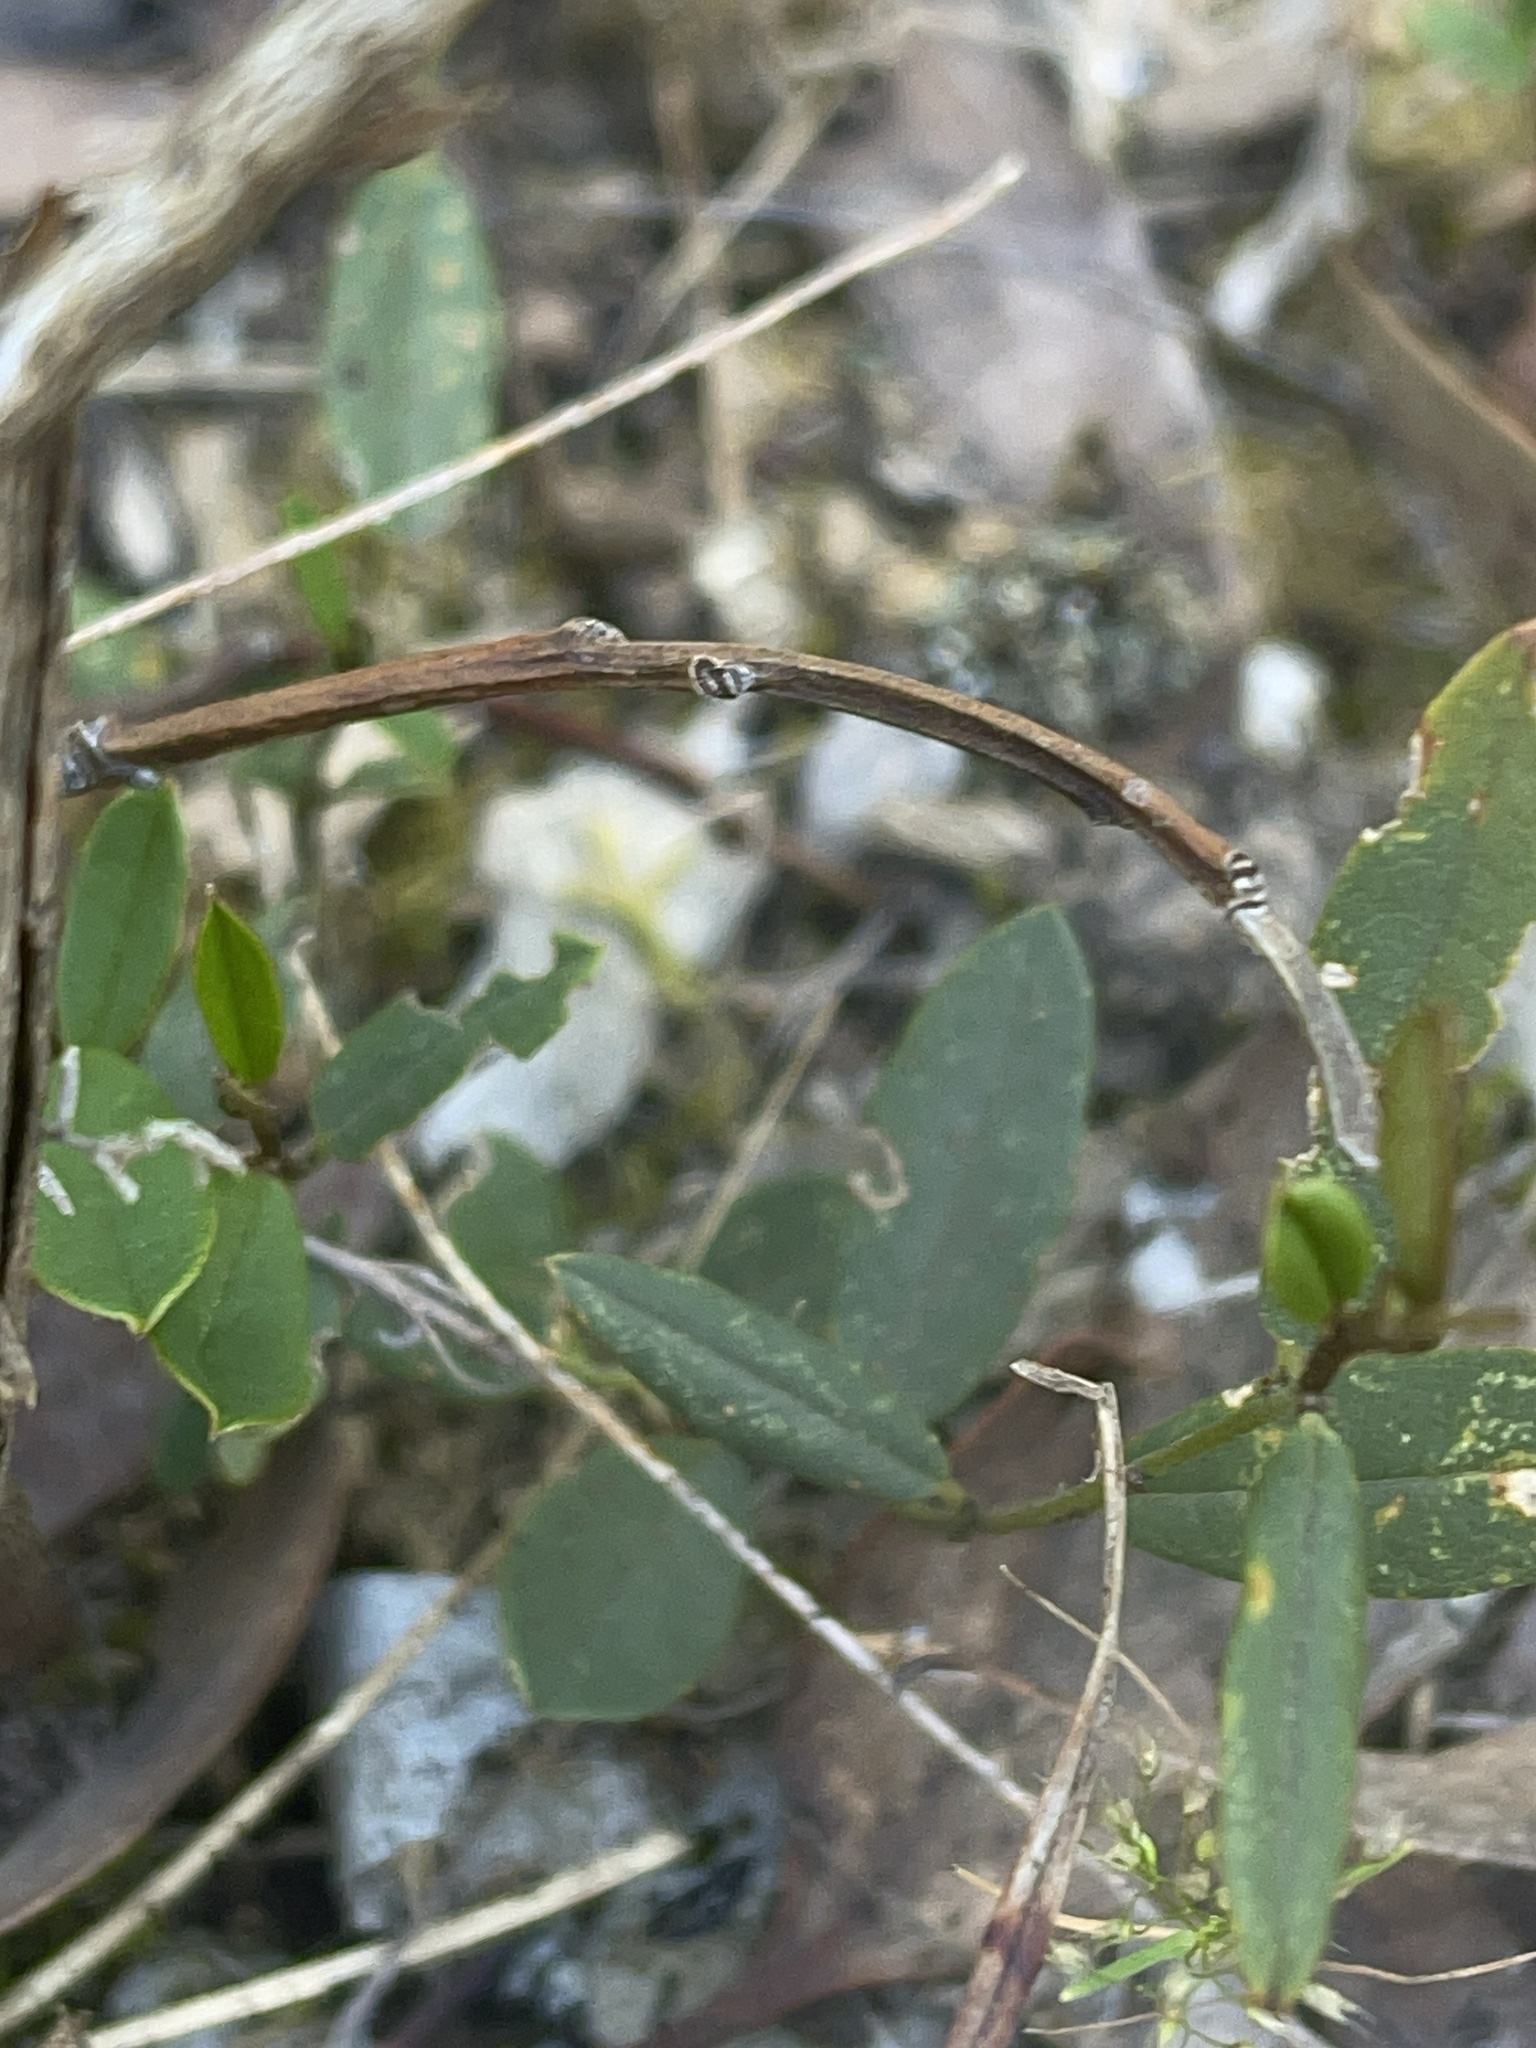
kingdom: Plantae
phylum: Tracheophyta
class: Magnoliopsida
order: Fabales
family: Fabaceae
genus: Hovea
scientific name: Hovea heterophylla
